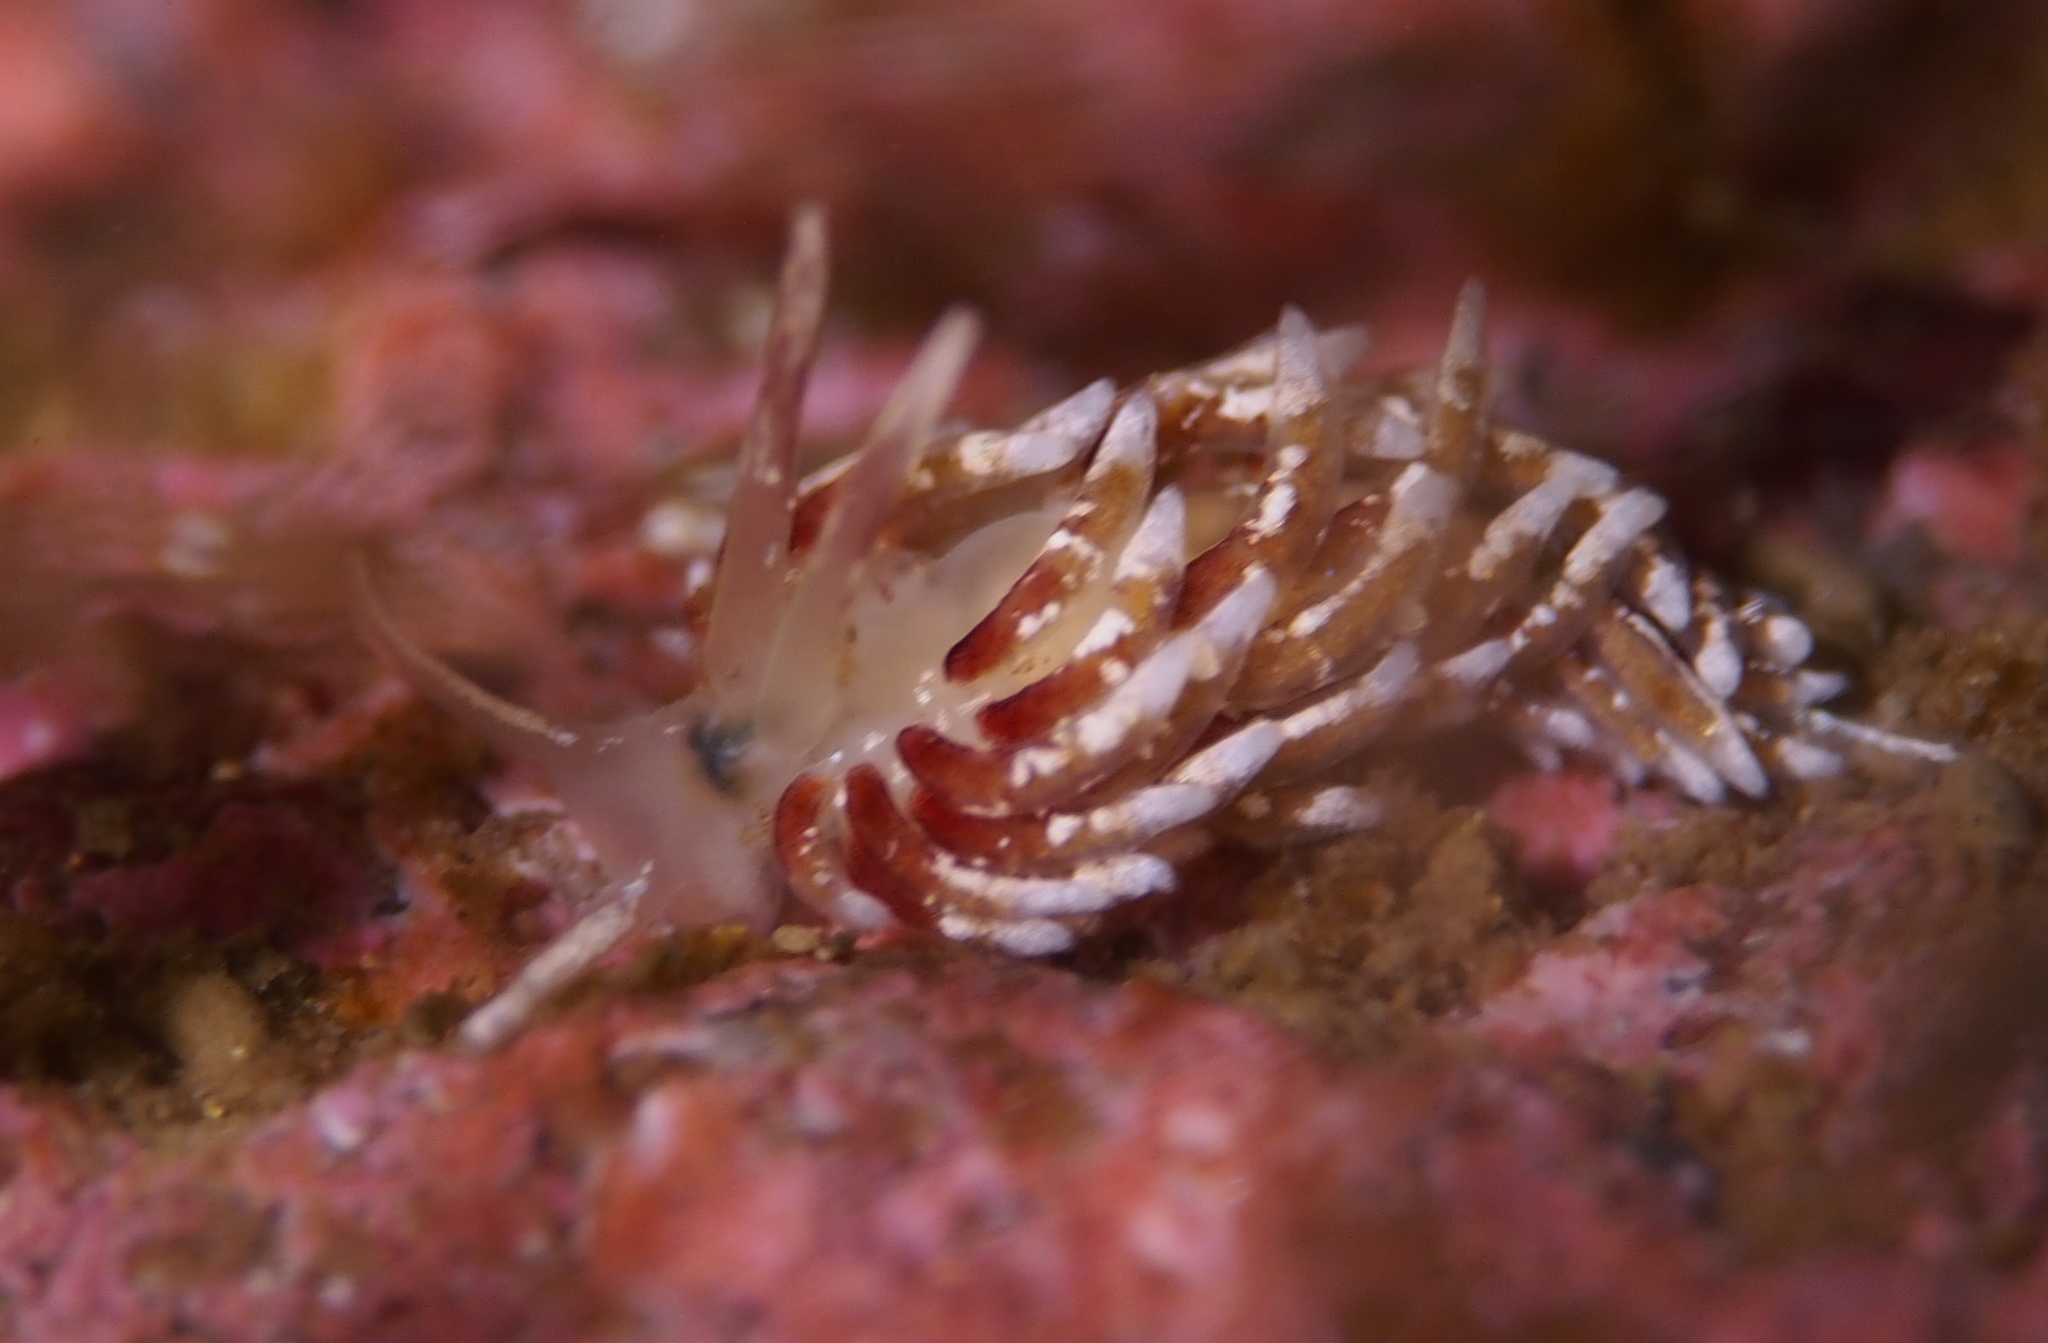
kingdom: Animalia
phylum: Mollusca
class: Gastropoda
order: Nudibranchia
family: Trinchesiidae
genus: Rubramoena
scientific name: Rubramoena rubescens
